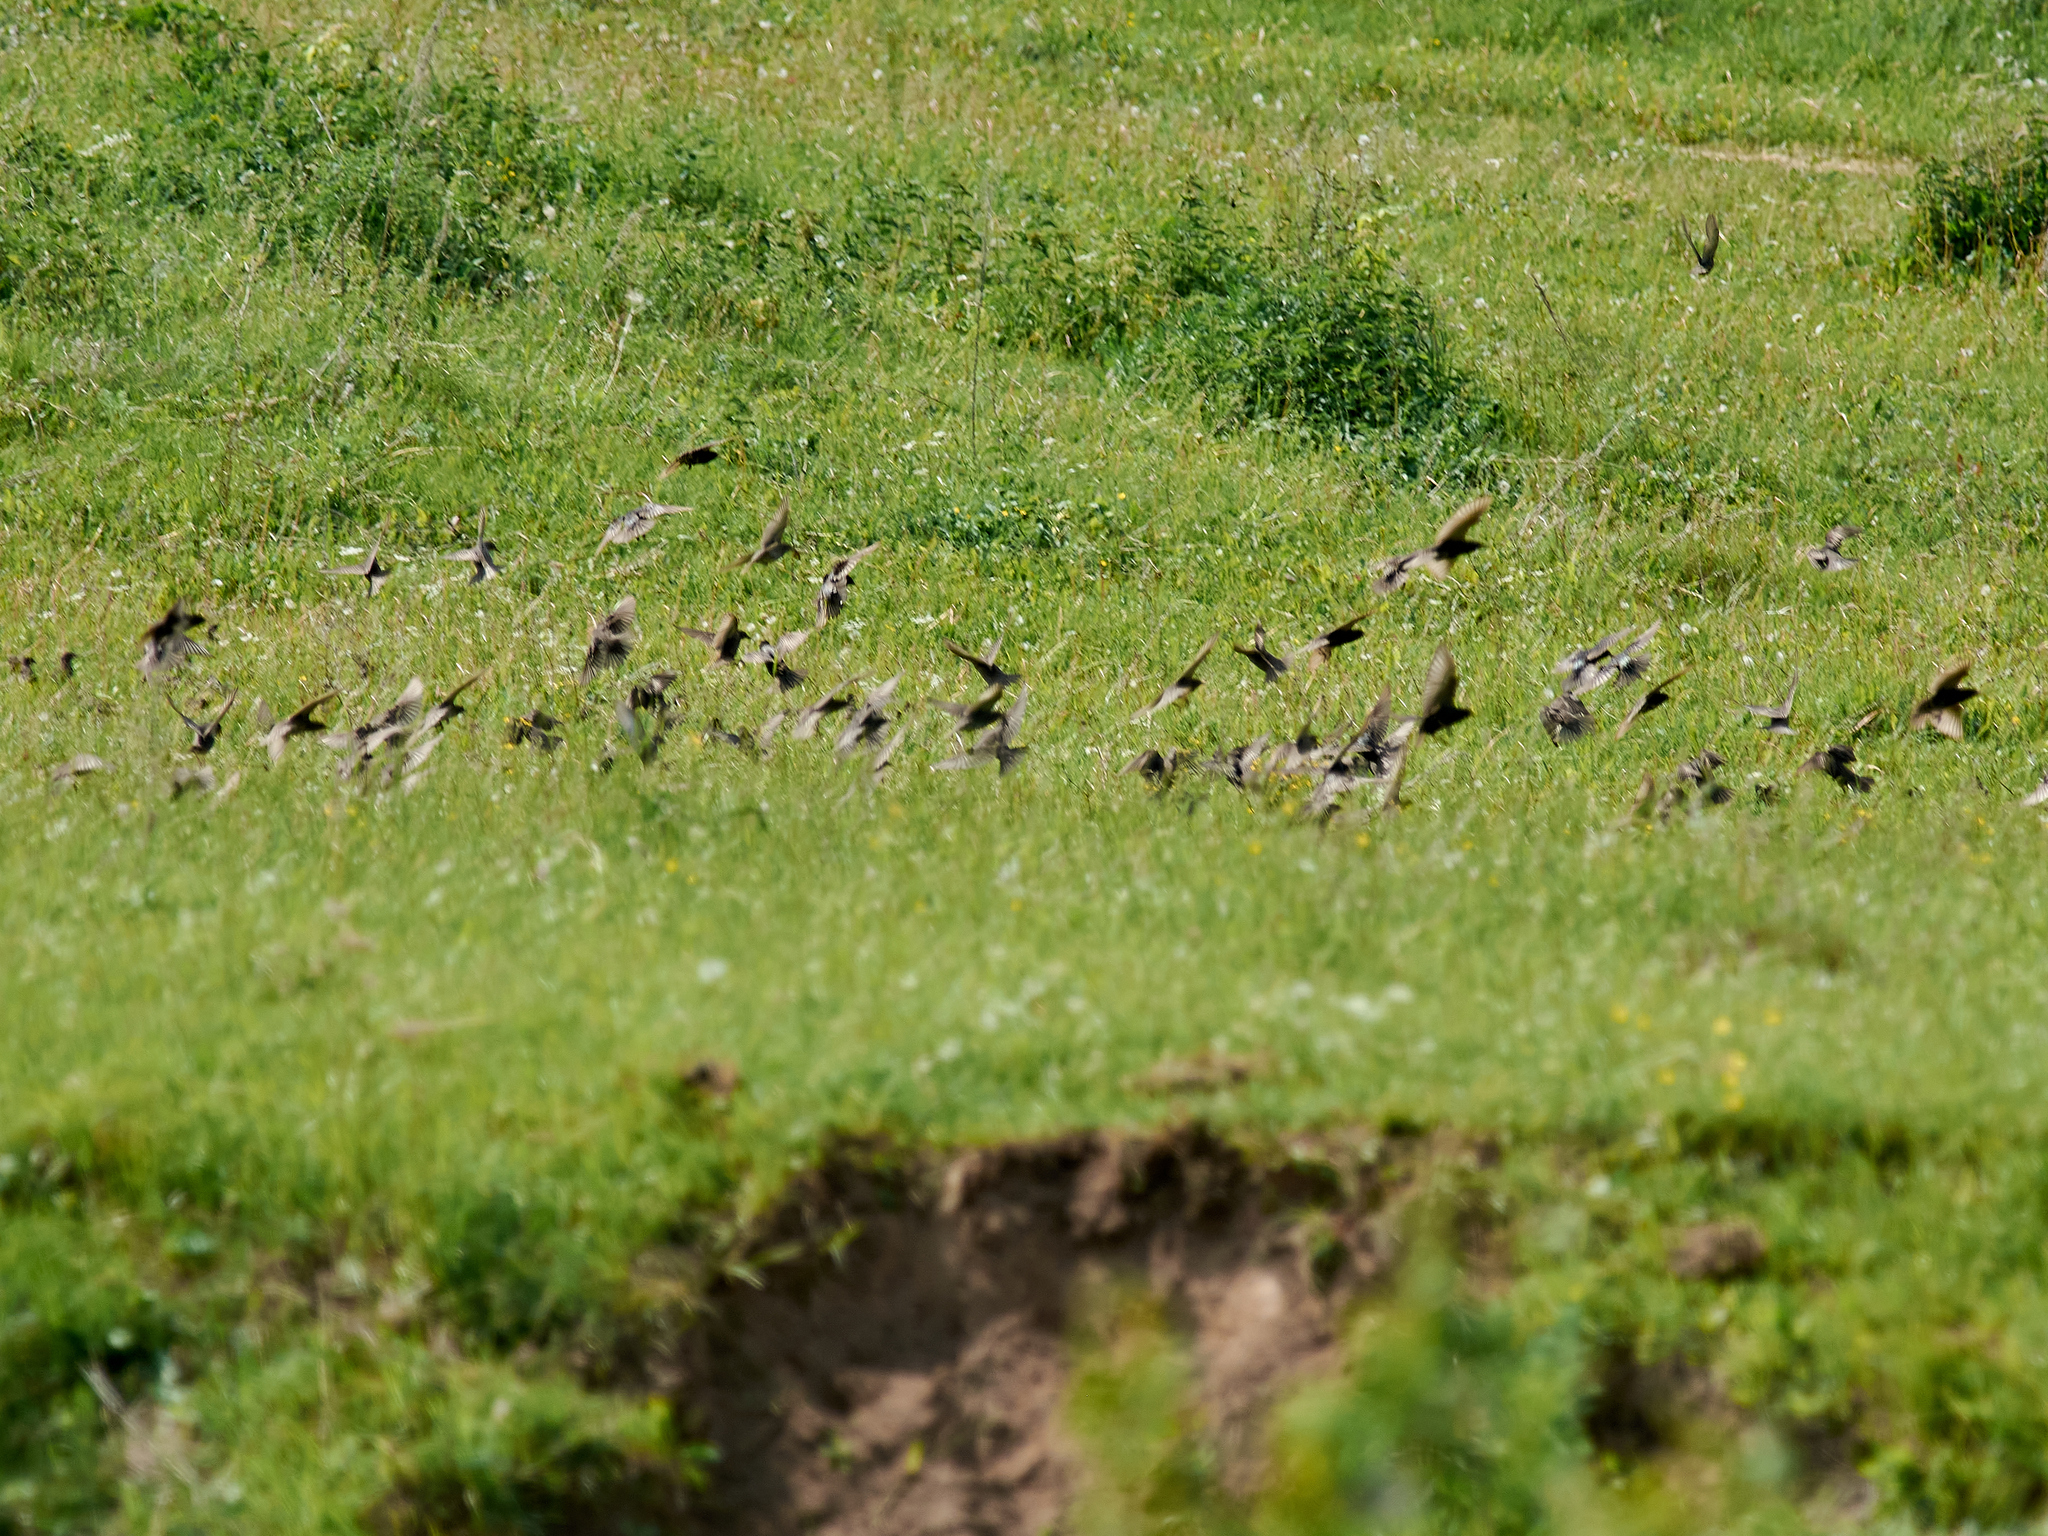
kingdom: Animalia
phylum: Chordata
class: Aves
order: Passeriformes
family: Sturnidae
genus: Sturnus
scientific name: Sturnus vulgaris
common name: Common starling
